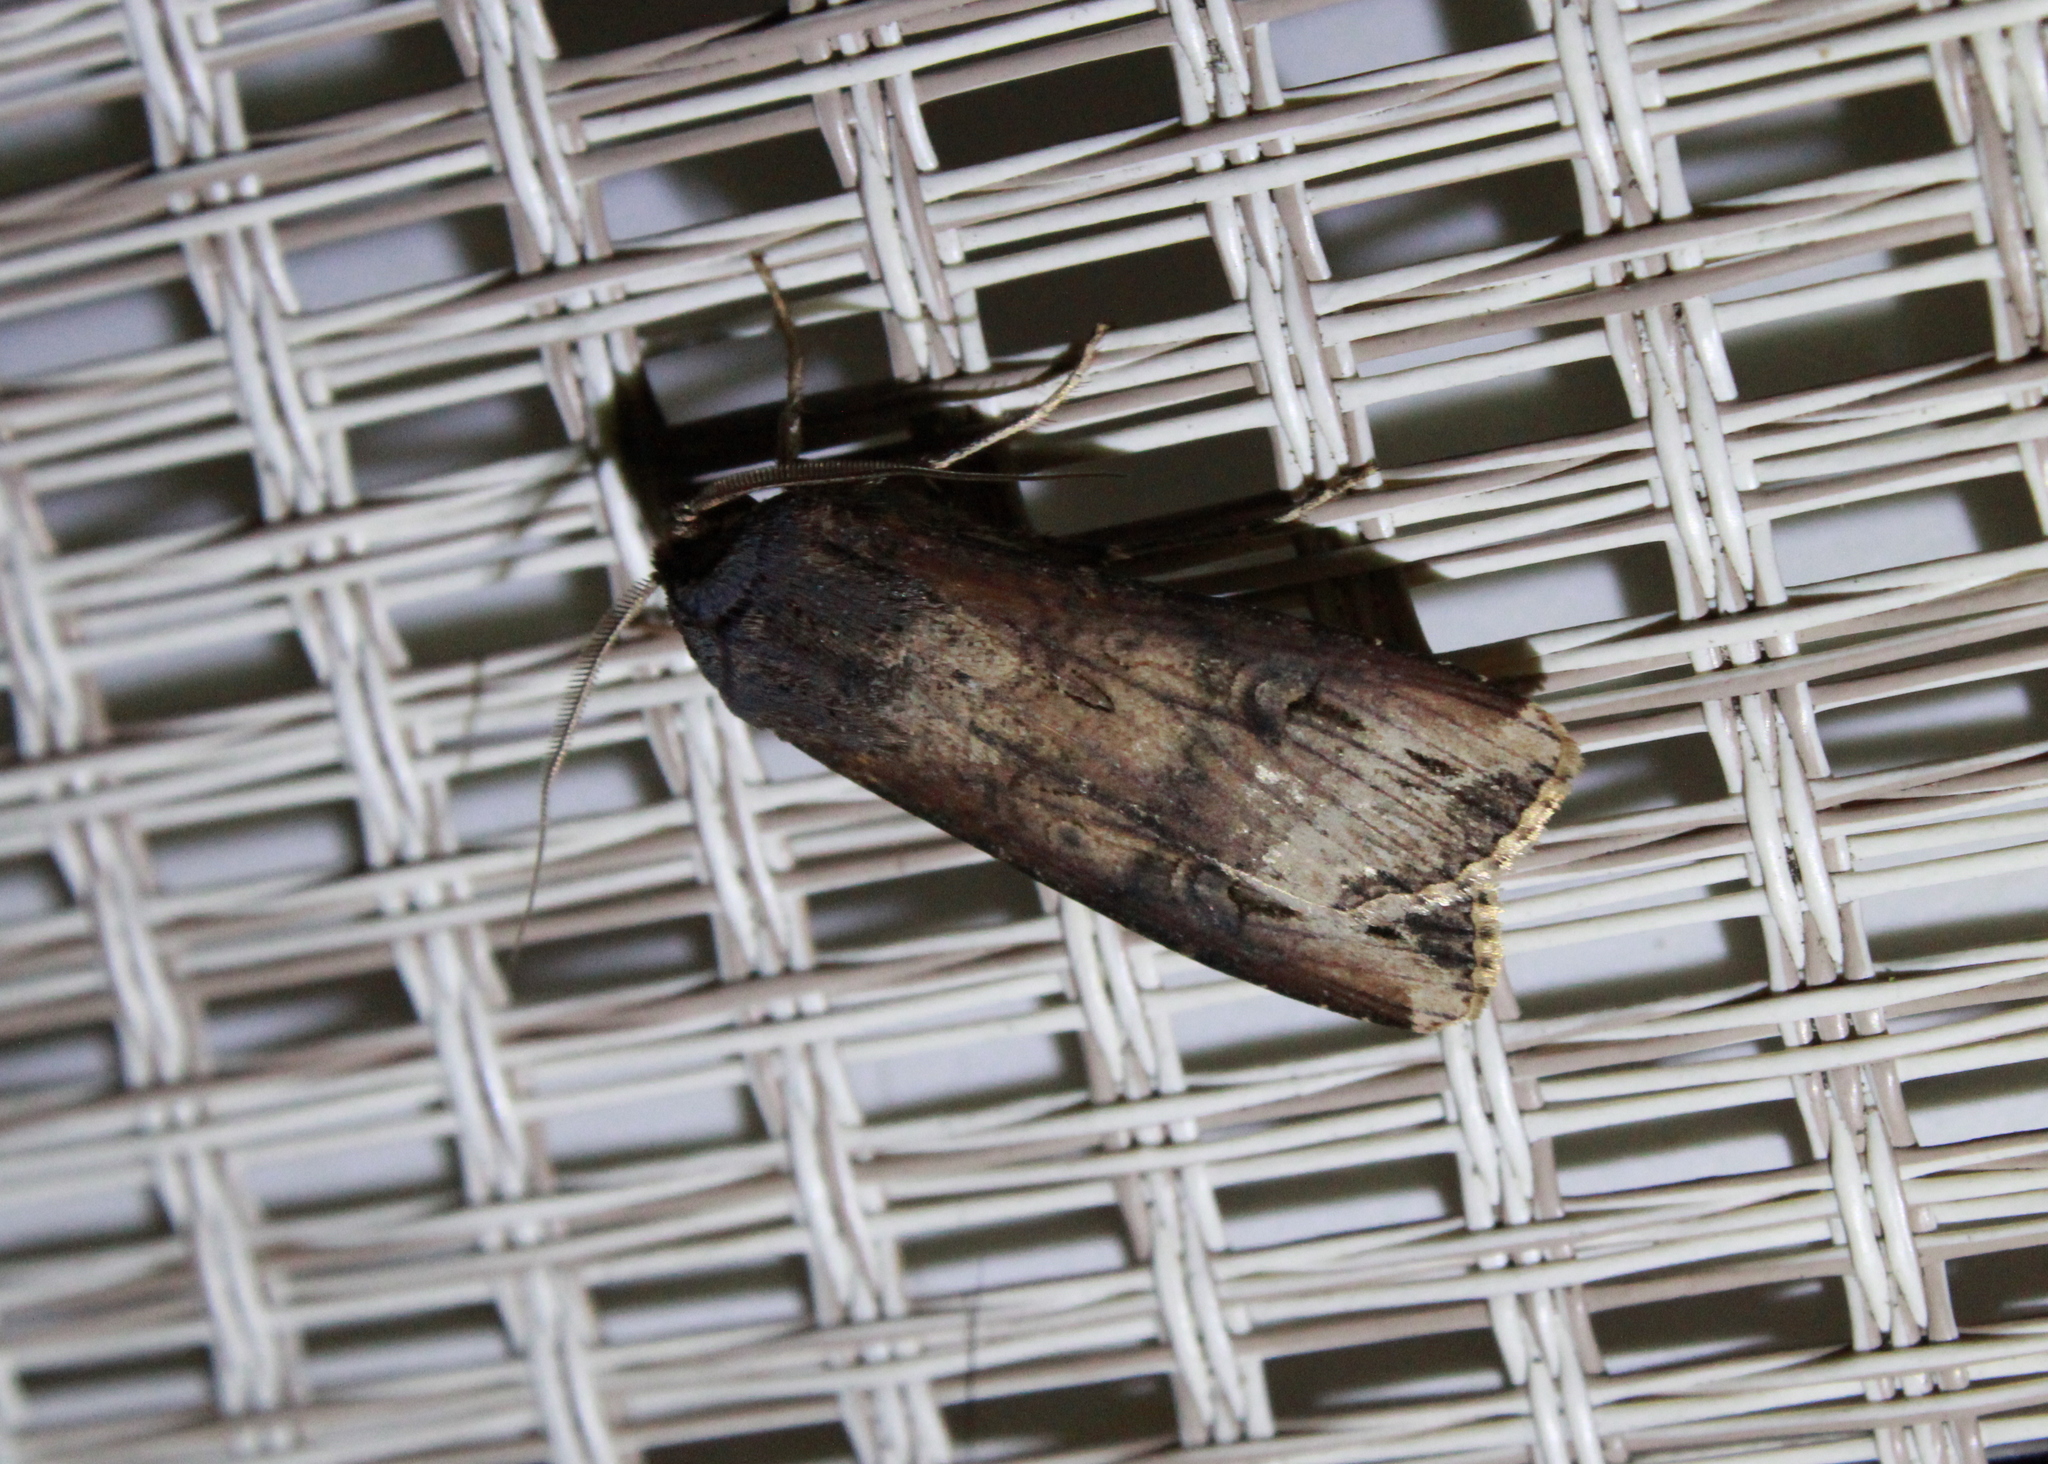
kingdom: Animalia
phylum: Arthropoda
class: Insecta
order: Lepidoptera
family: Noctuidae
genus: Agrotis
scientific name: Agrotis ipsilon
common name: Dark sword-grass
